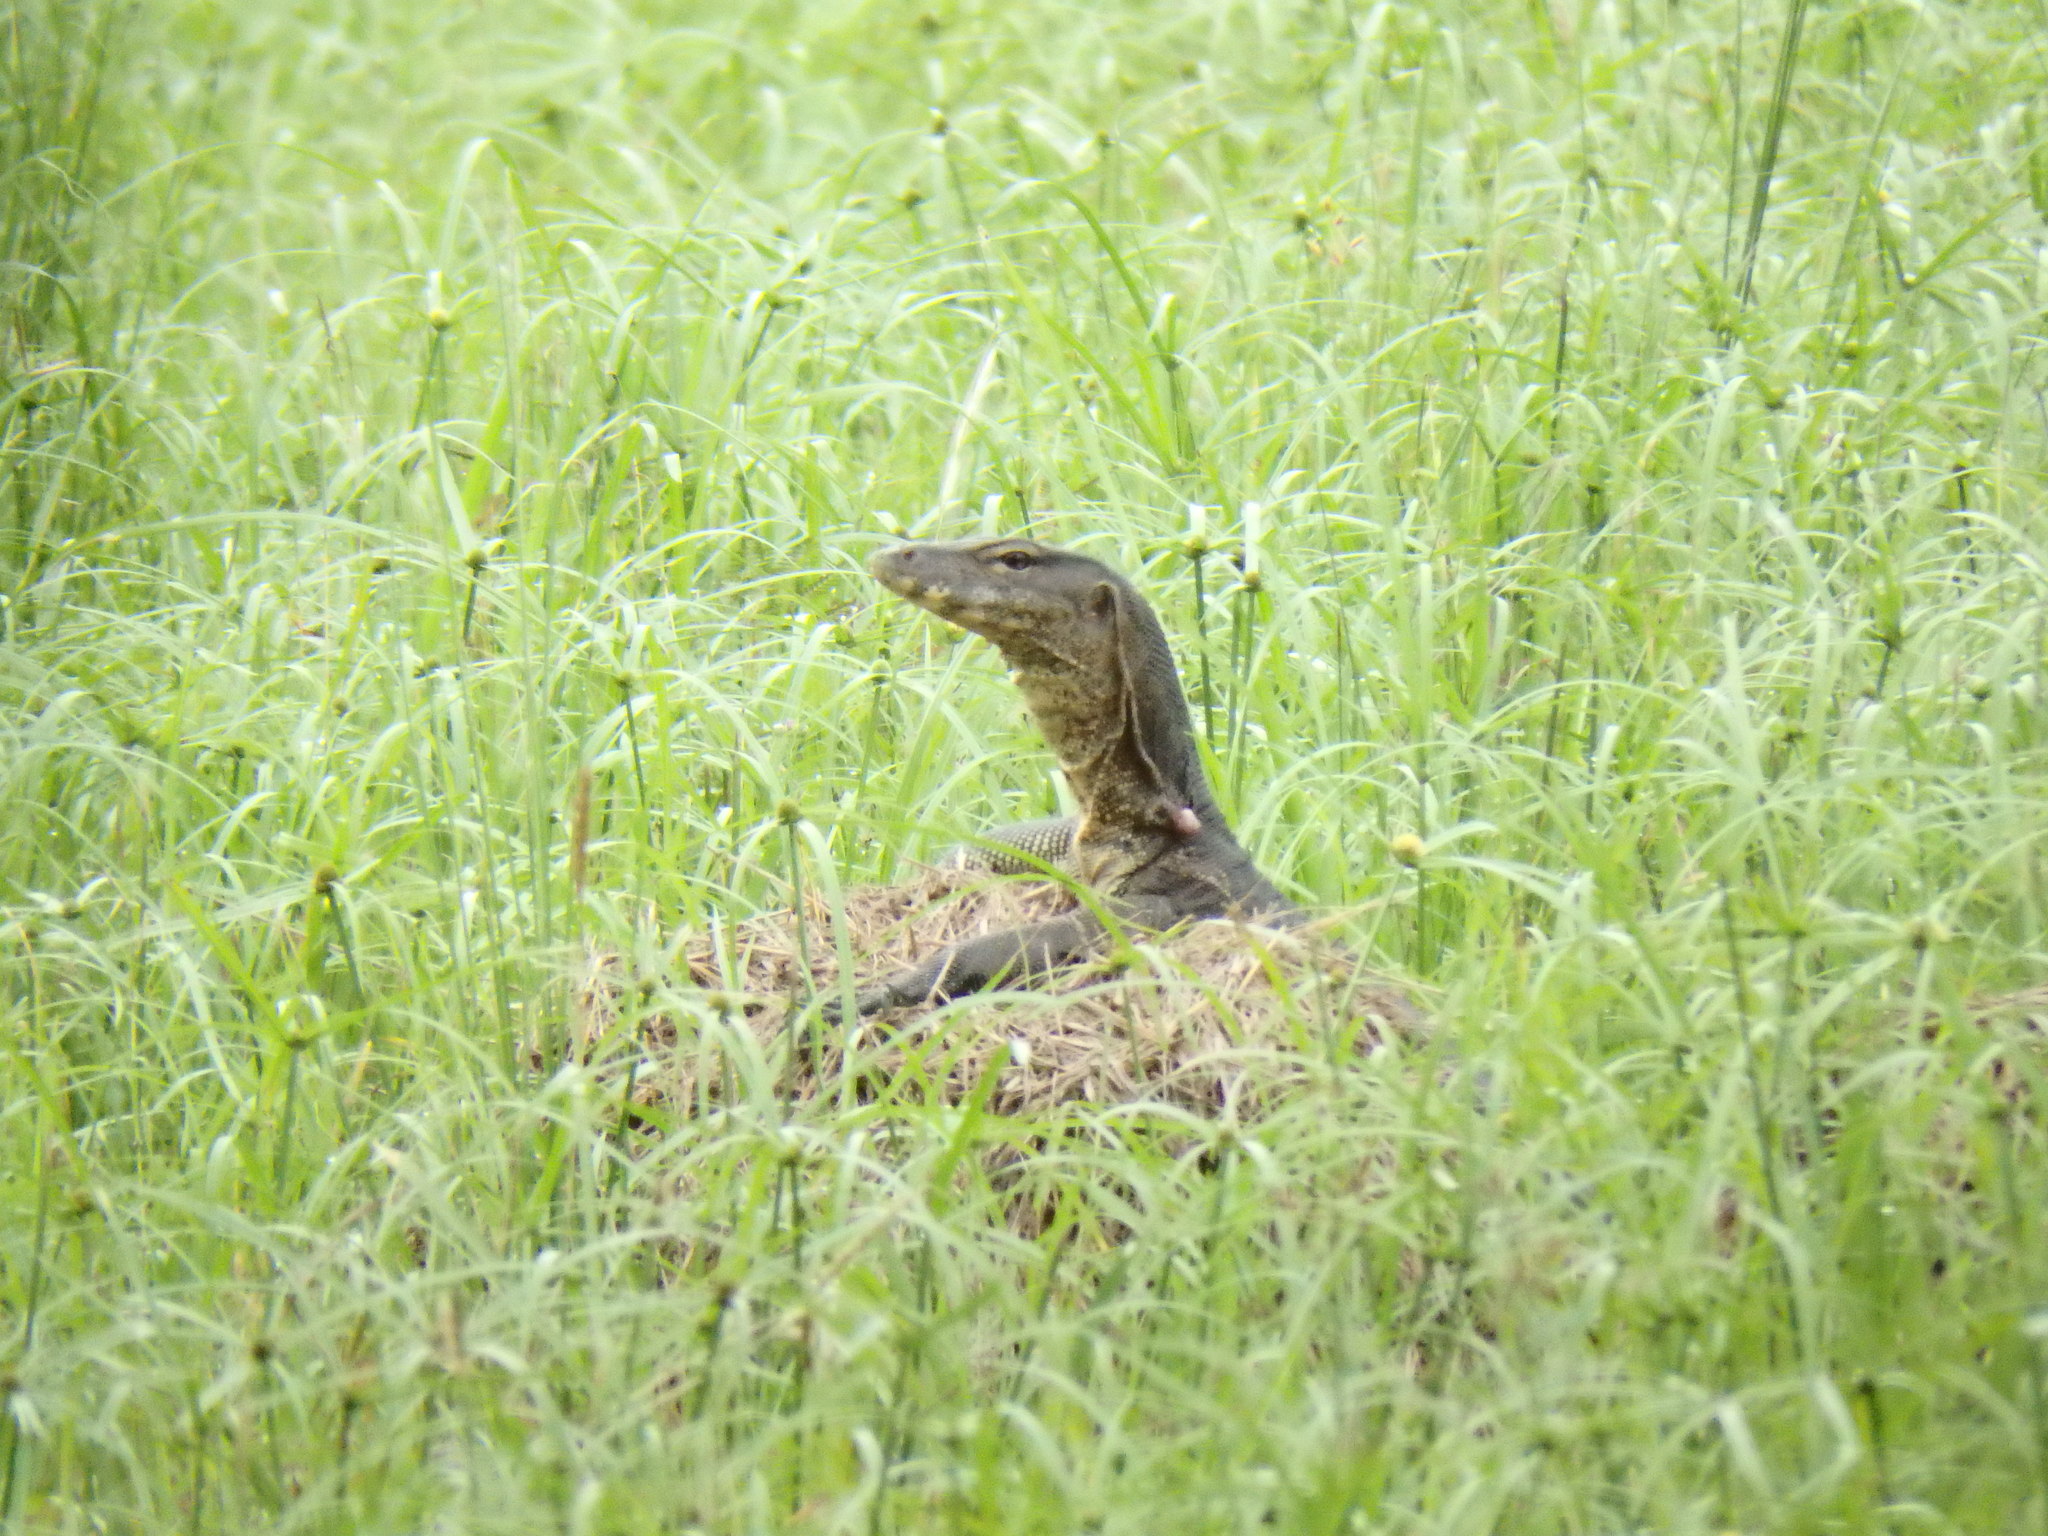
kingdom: Animalia
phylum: Chordata
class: Squamata
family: Varanidae
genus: Varanus
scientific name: Varanus salvator
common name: Common water monitor
